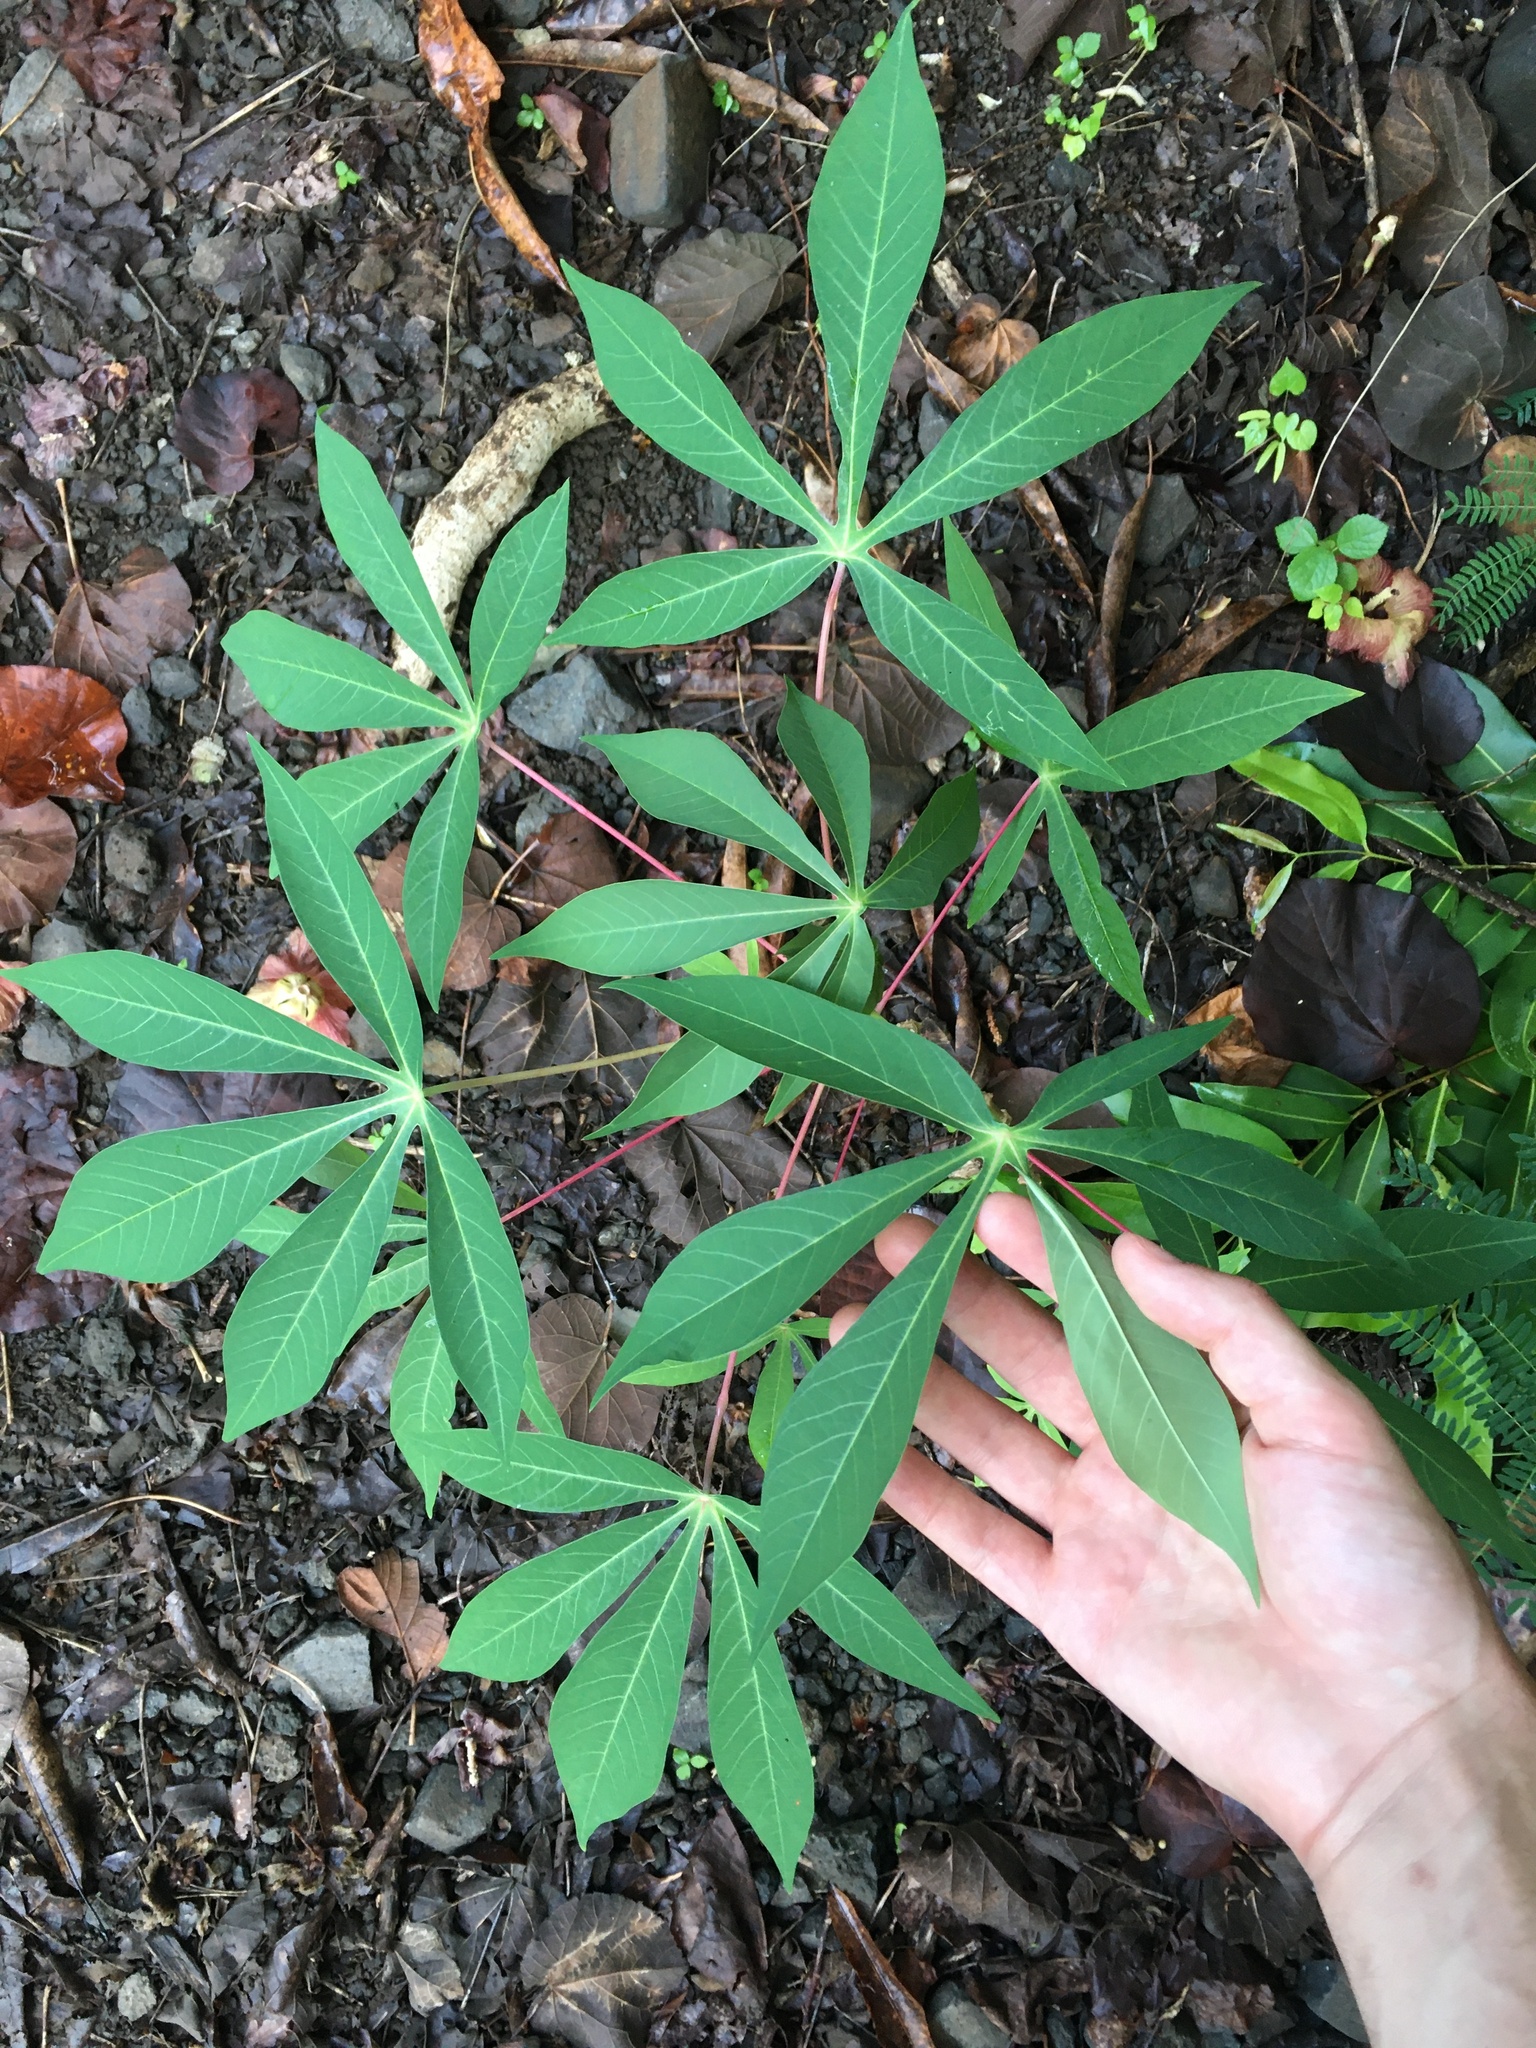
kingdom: Plantae
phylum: Tracheophyta
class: Magnoliopsida
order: Malpighiales
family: Euphorbiaceae
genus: Manihot
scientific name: Manihot esculenta
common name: Cassava
